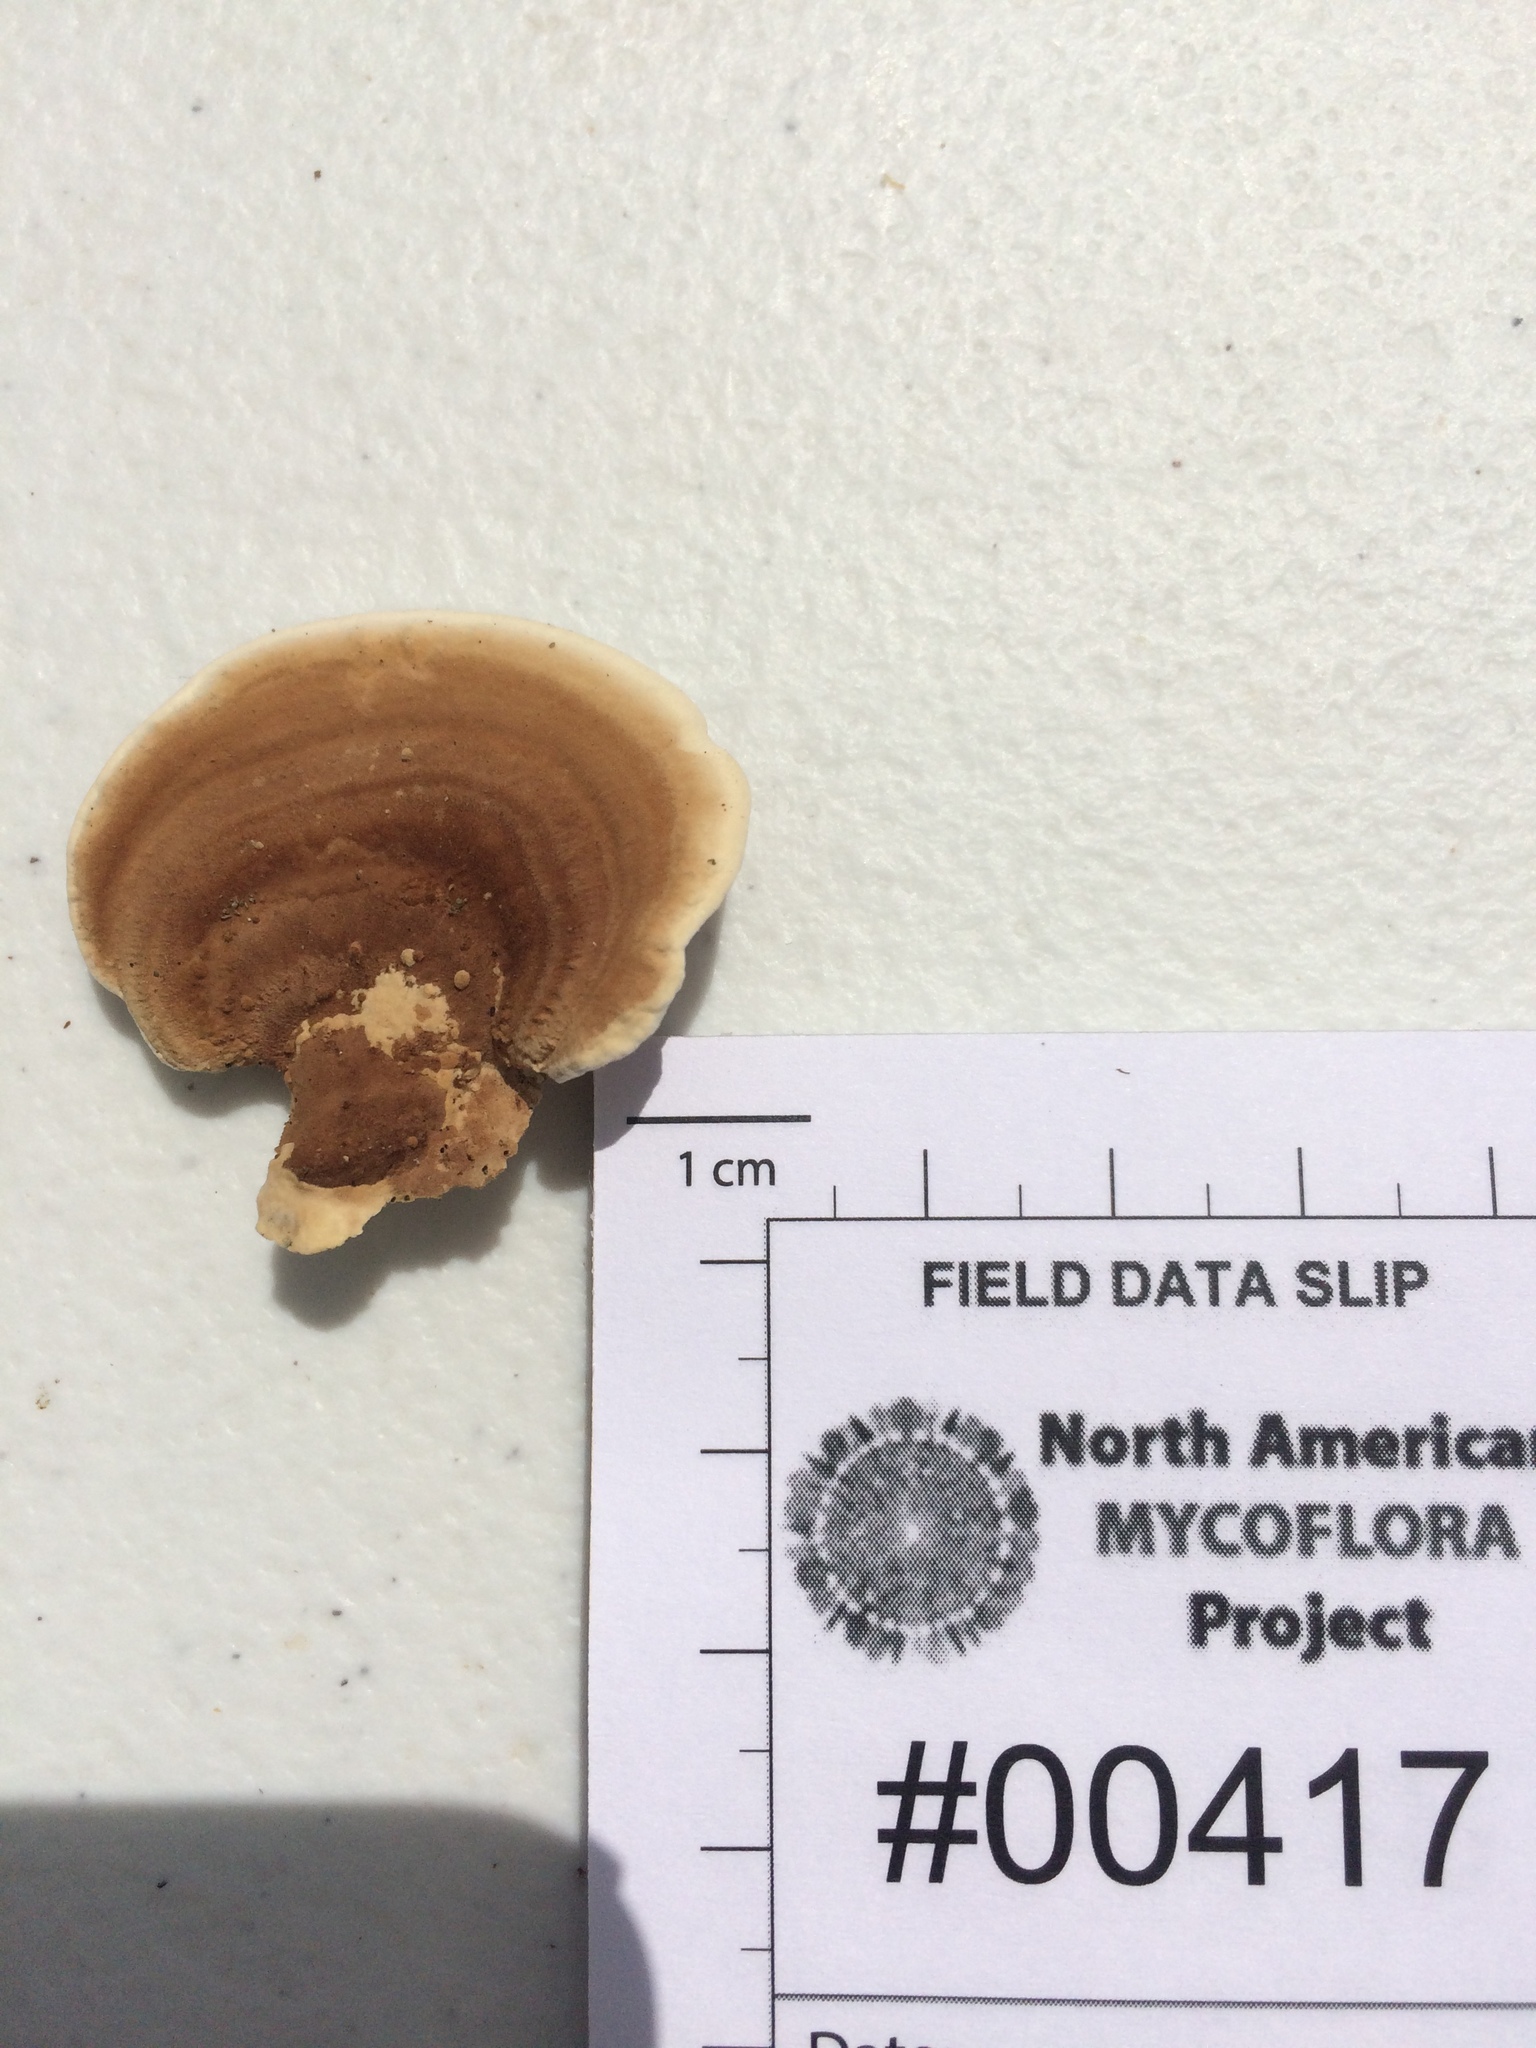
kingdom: Fungi
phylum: Basidiomycota
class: Agaricomycetes
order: Polyporales
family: Steccherinaceae
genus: Metuloidea
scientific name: Metuloidea reniformis
